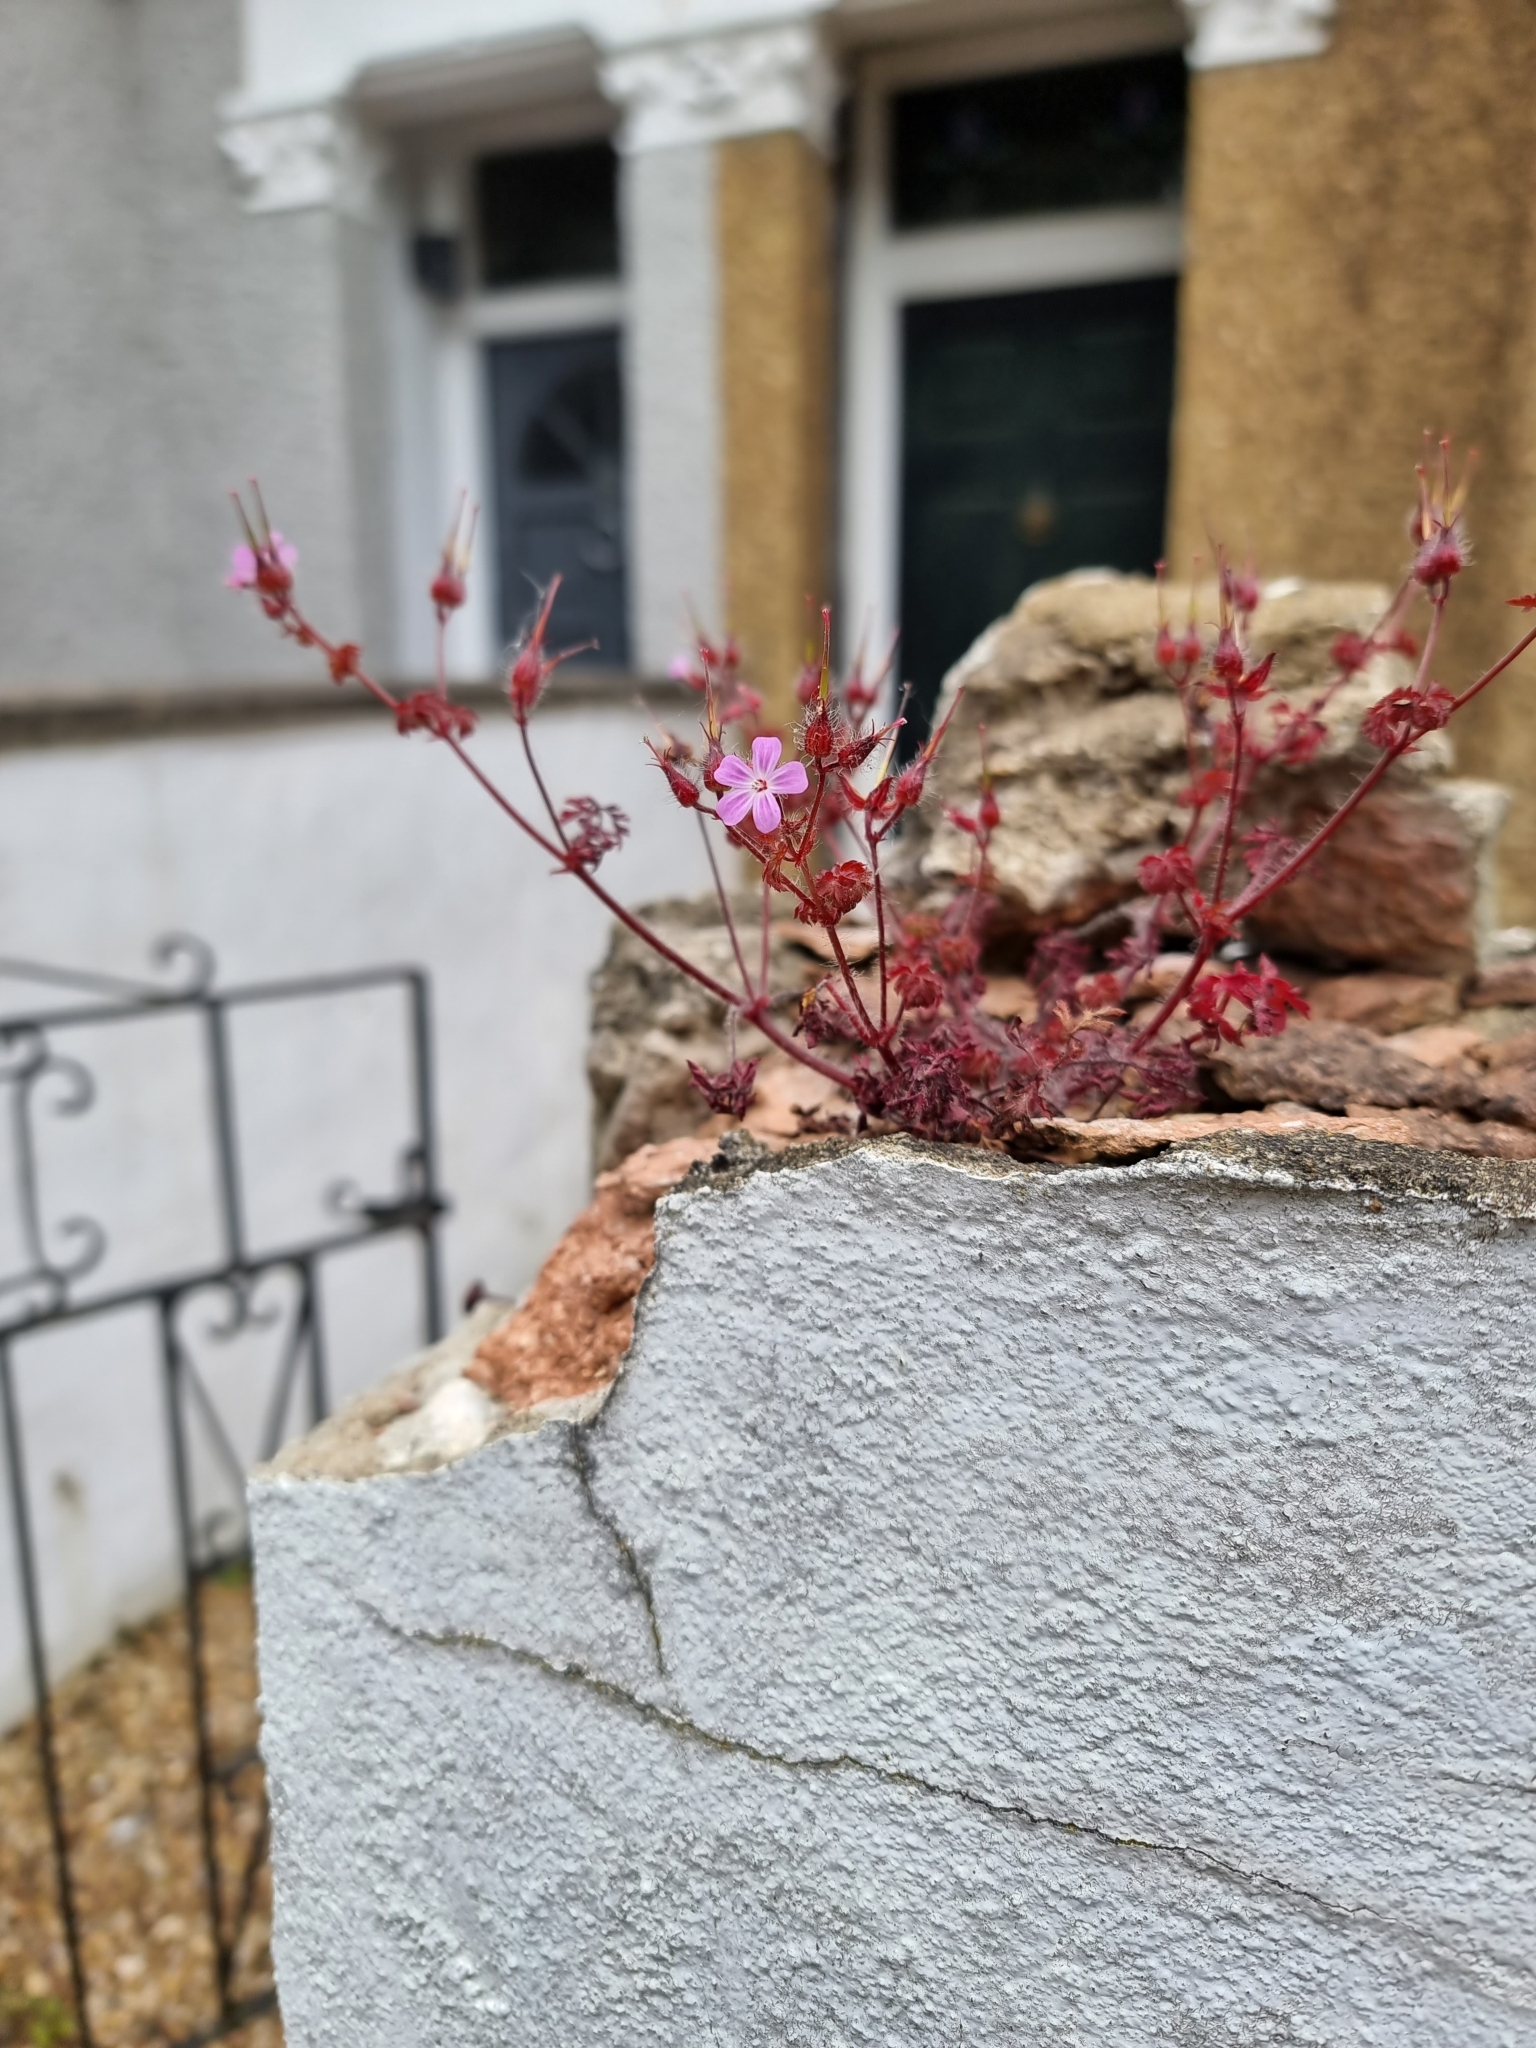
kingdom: Plantae
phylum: Tracheophyta
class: Magnoliopsida
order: Geraniales
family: Geraniaceae
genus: Geranium
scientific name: Geranium robertianum
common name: Herb-robert
